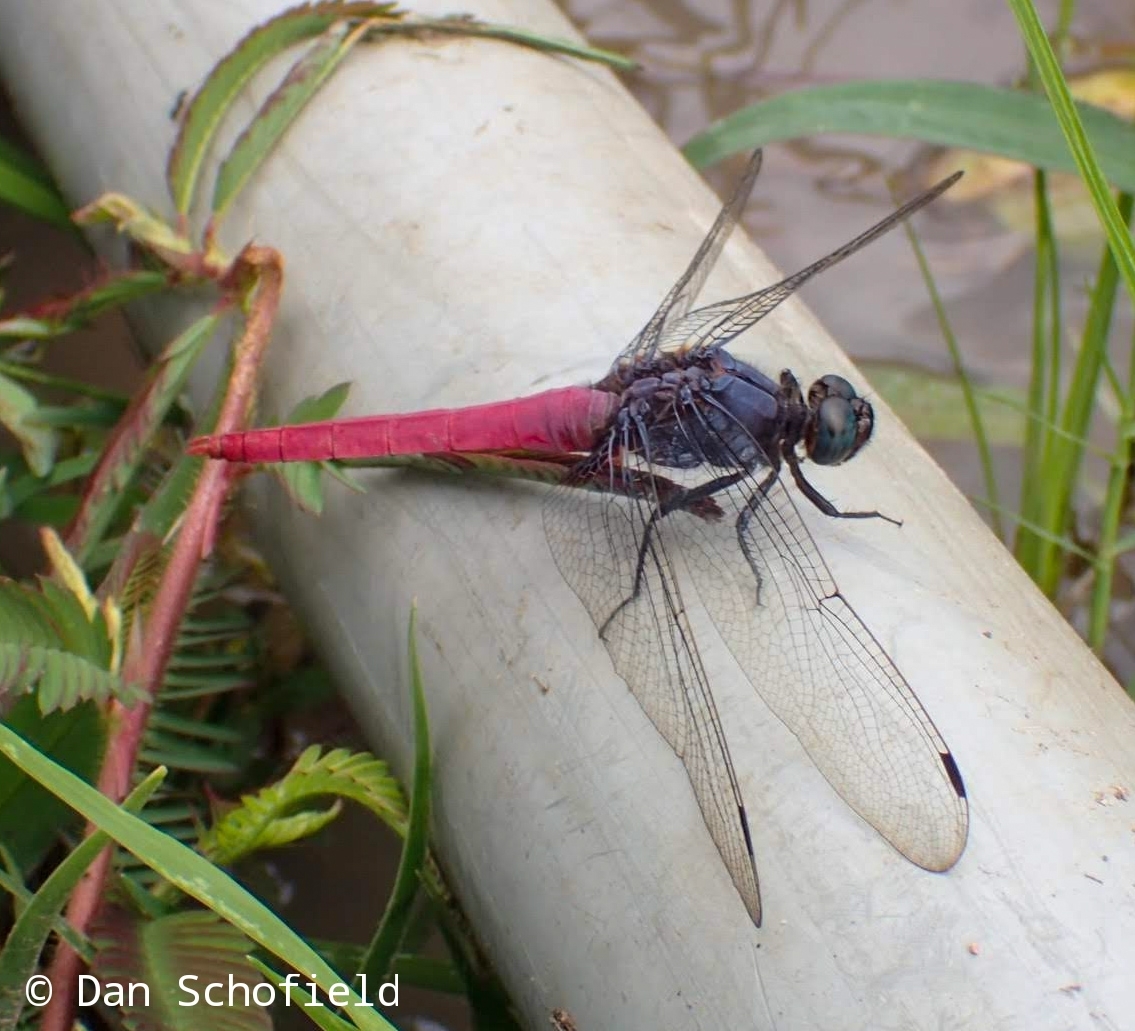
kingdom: Animalia
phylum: Arthropoda
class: Insecta
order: Odonata
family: Libellulidae
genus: Orthetrum
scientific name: Orthetrum pruinosum
